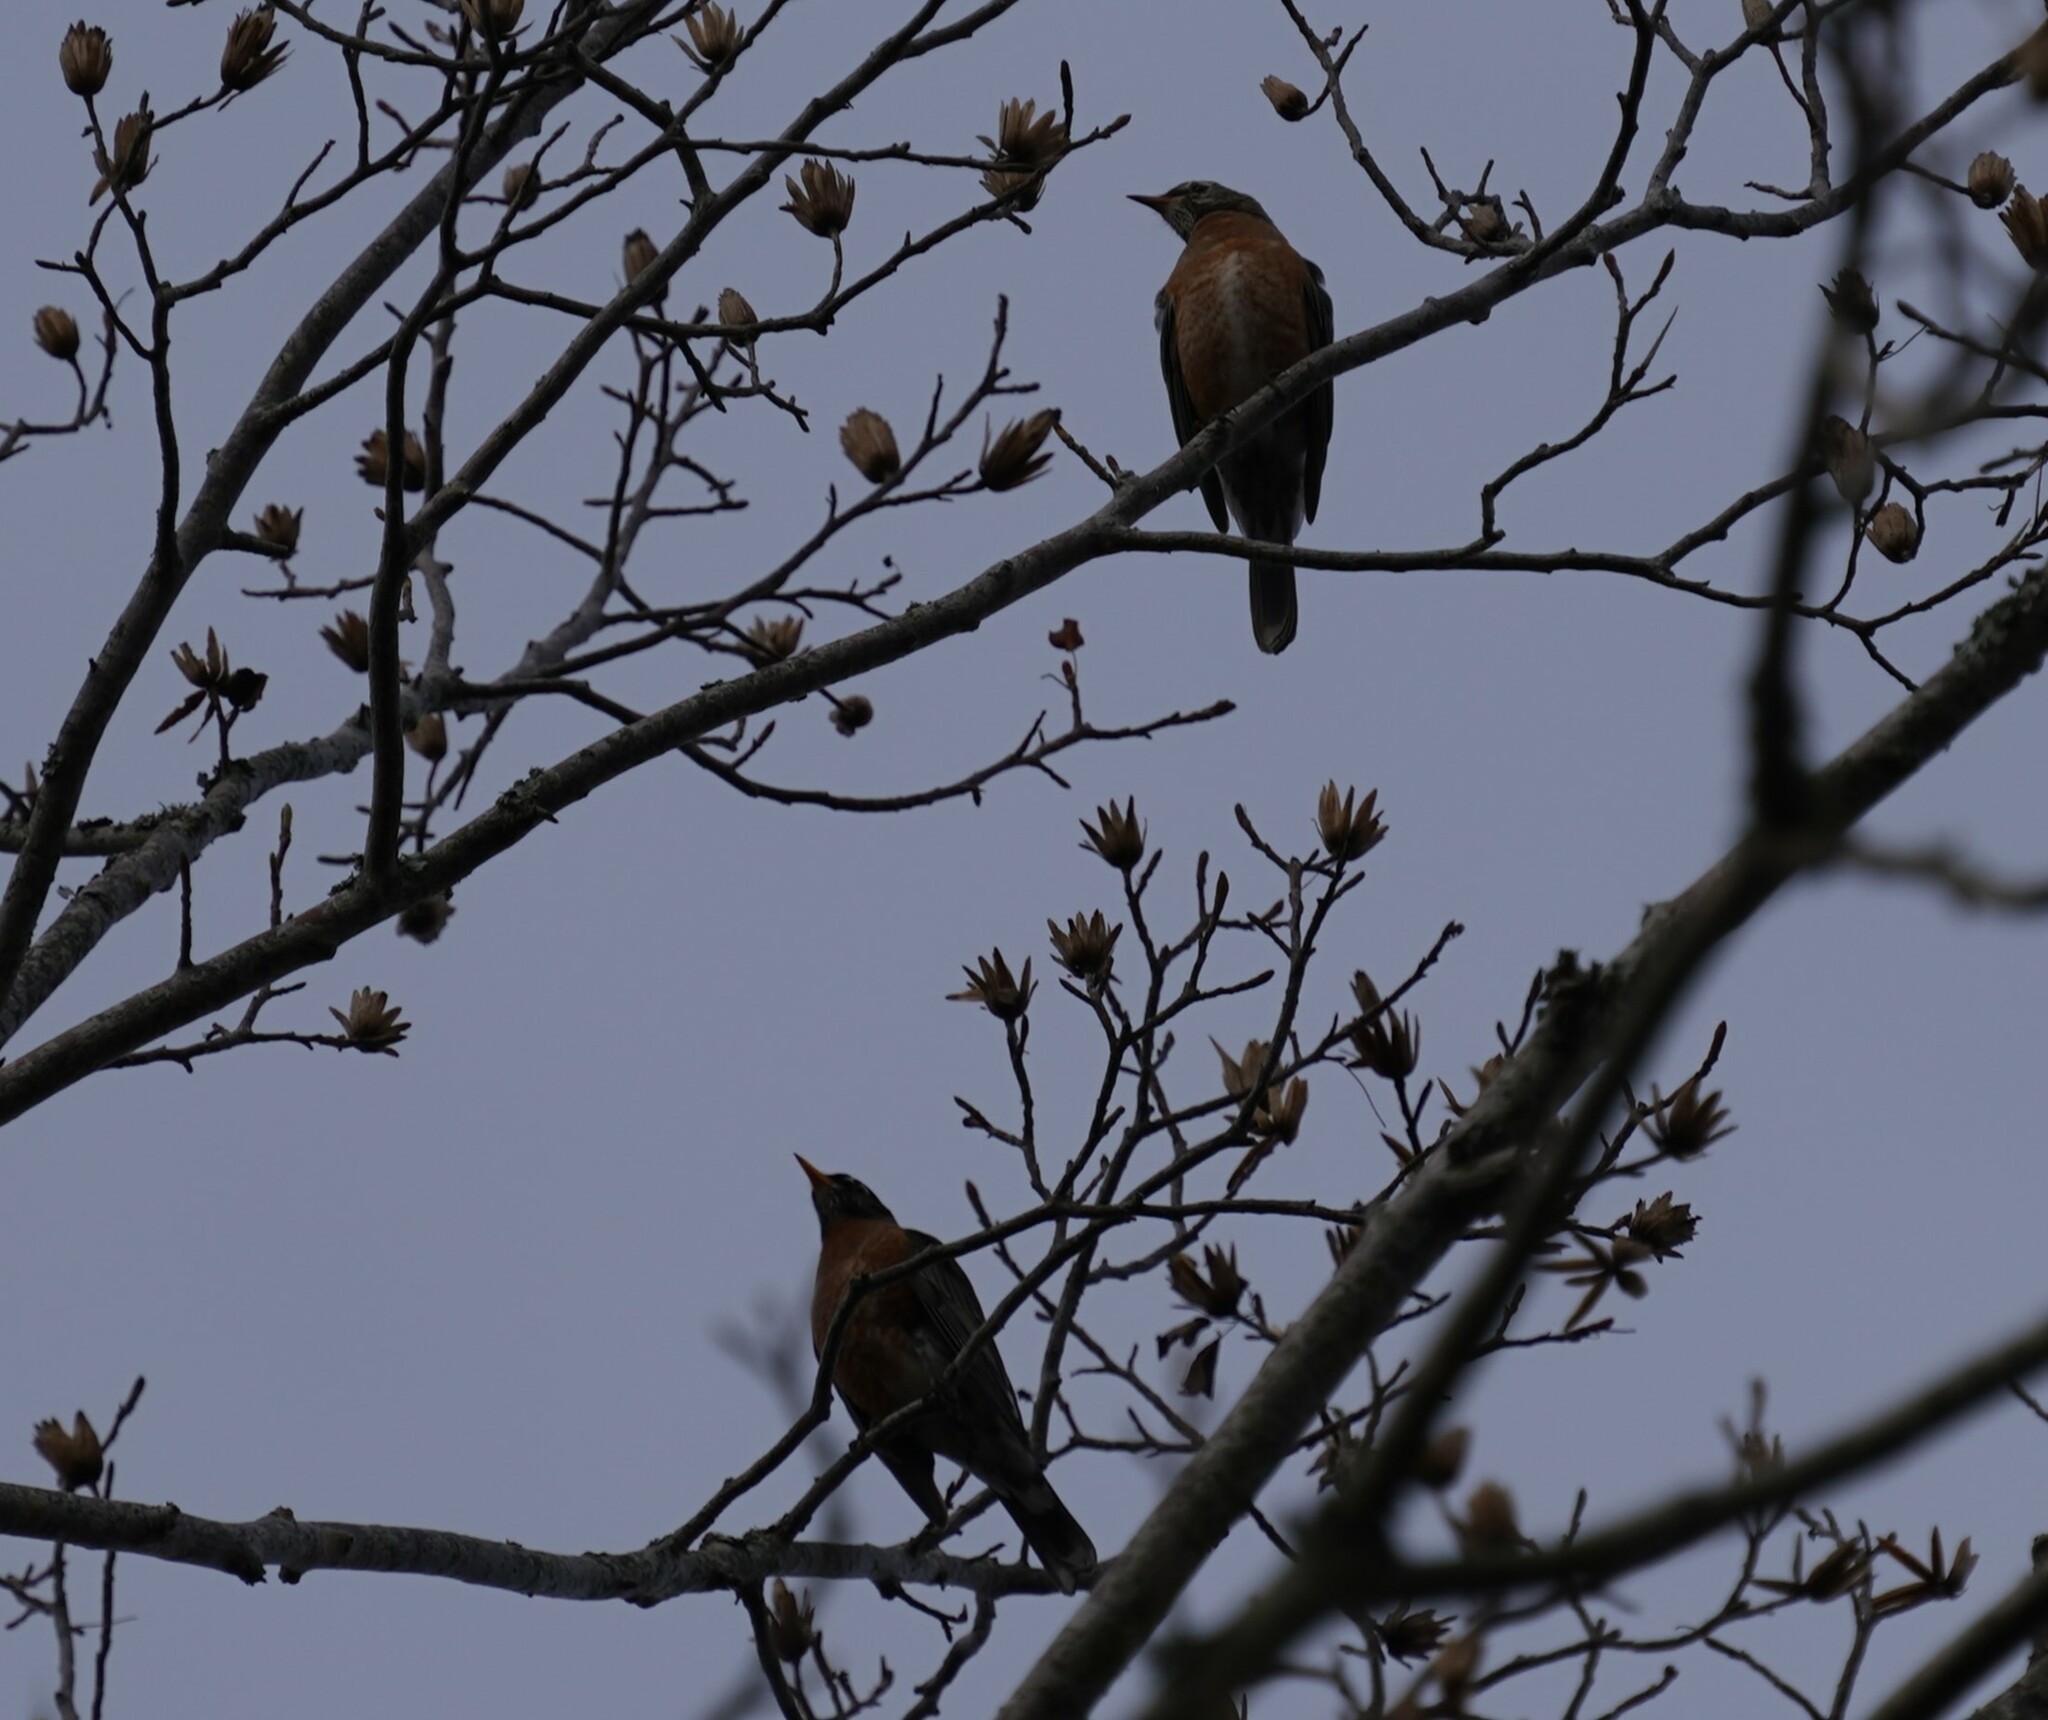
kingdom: Animalia
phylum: Chordata
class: Aves
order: Passeriformes
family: Turdidae
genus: Turdus
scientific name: Turdus migratorius
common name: American robin
